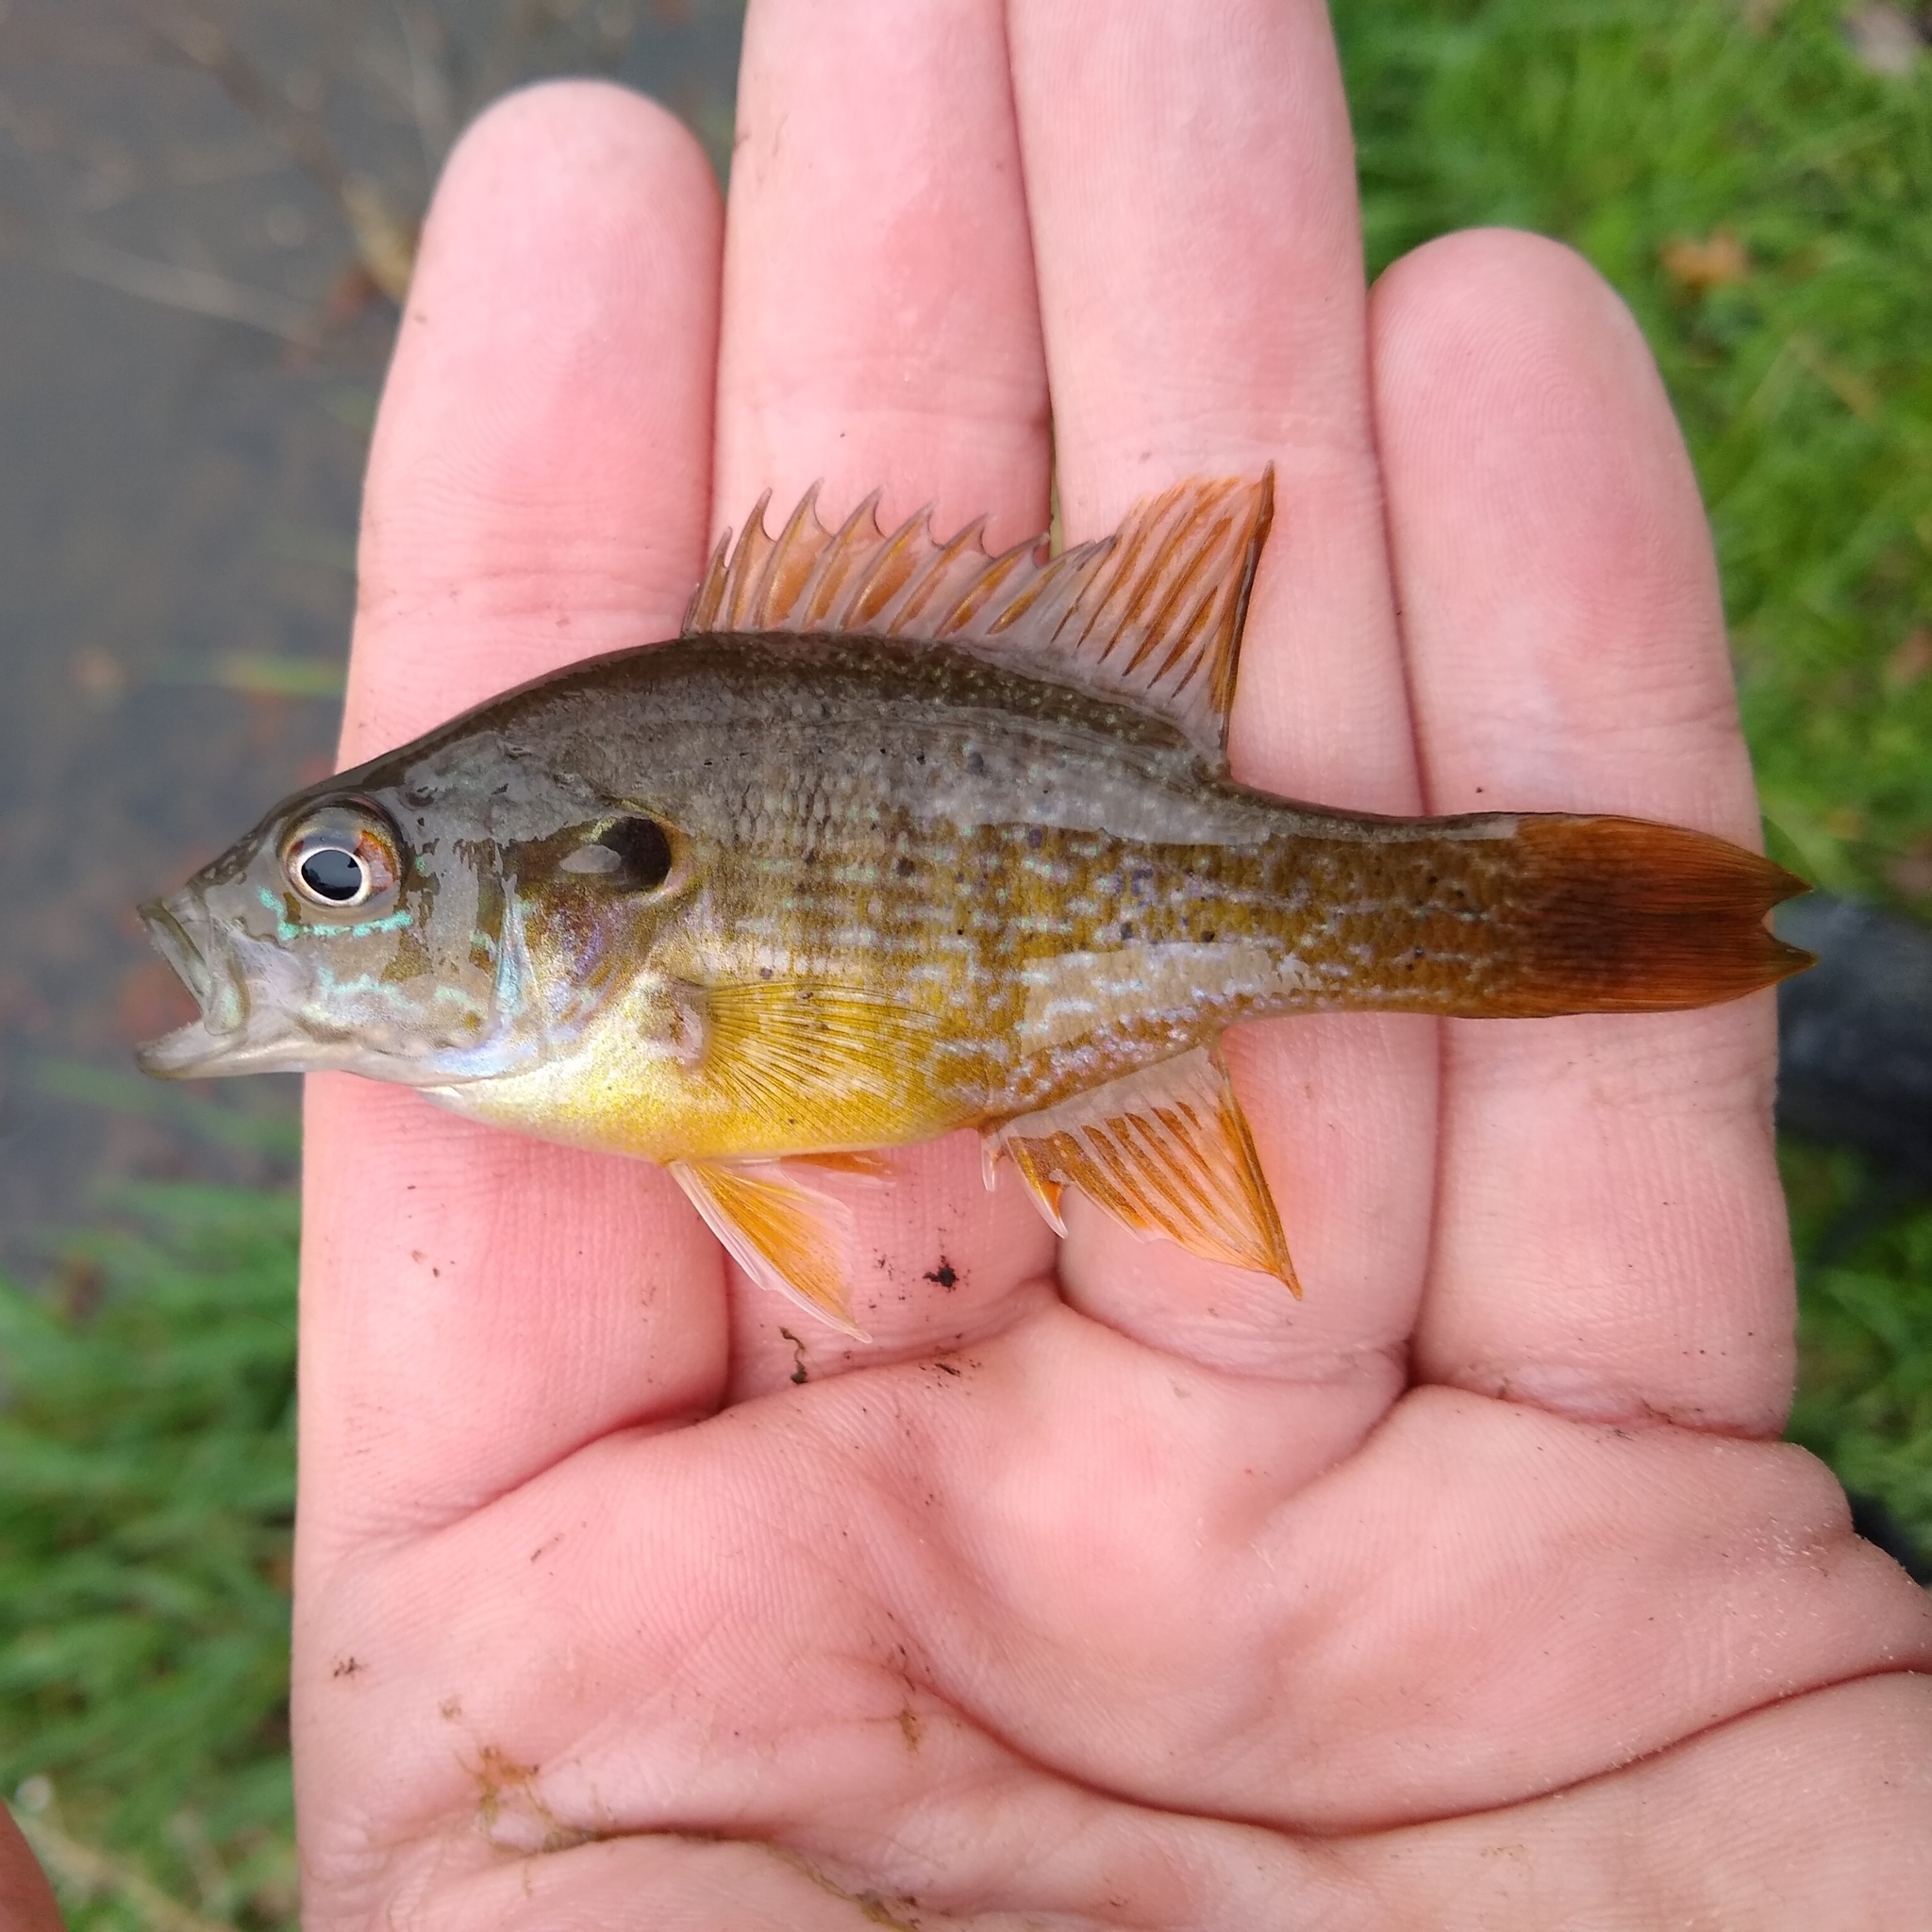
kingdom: Animalia
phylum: Chordata
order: Perciformes
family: Centrarchidae
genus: Lepomis
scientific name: Lepomis cyanellus
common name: Green sunfish
